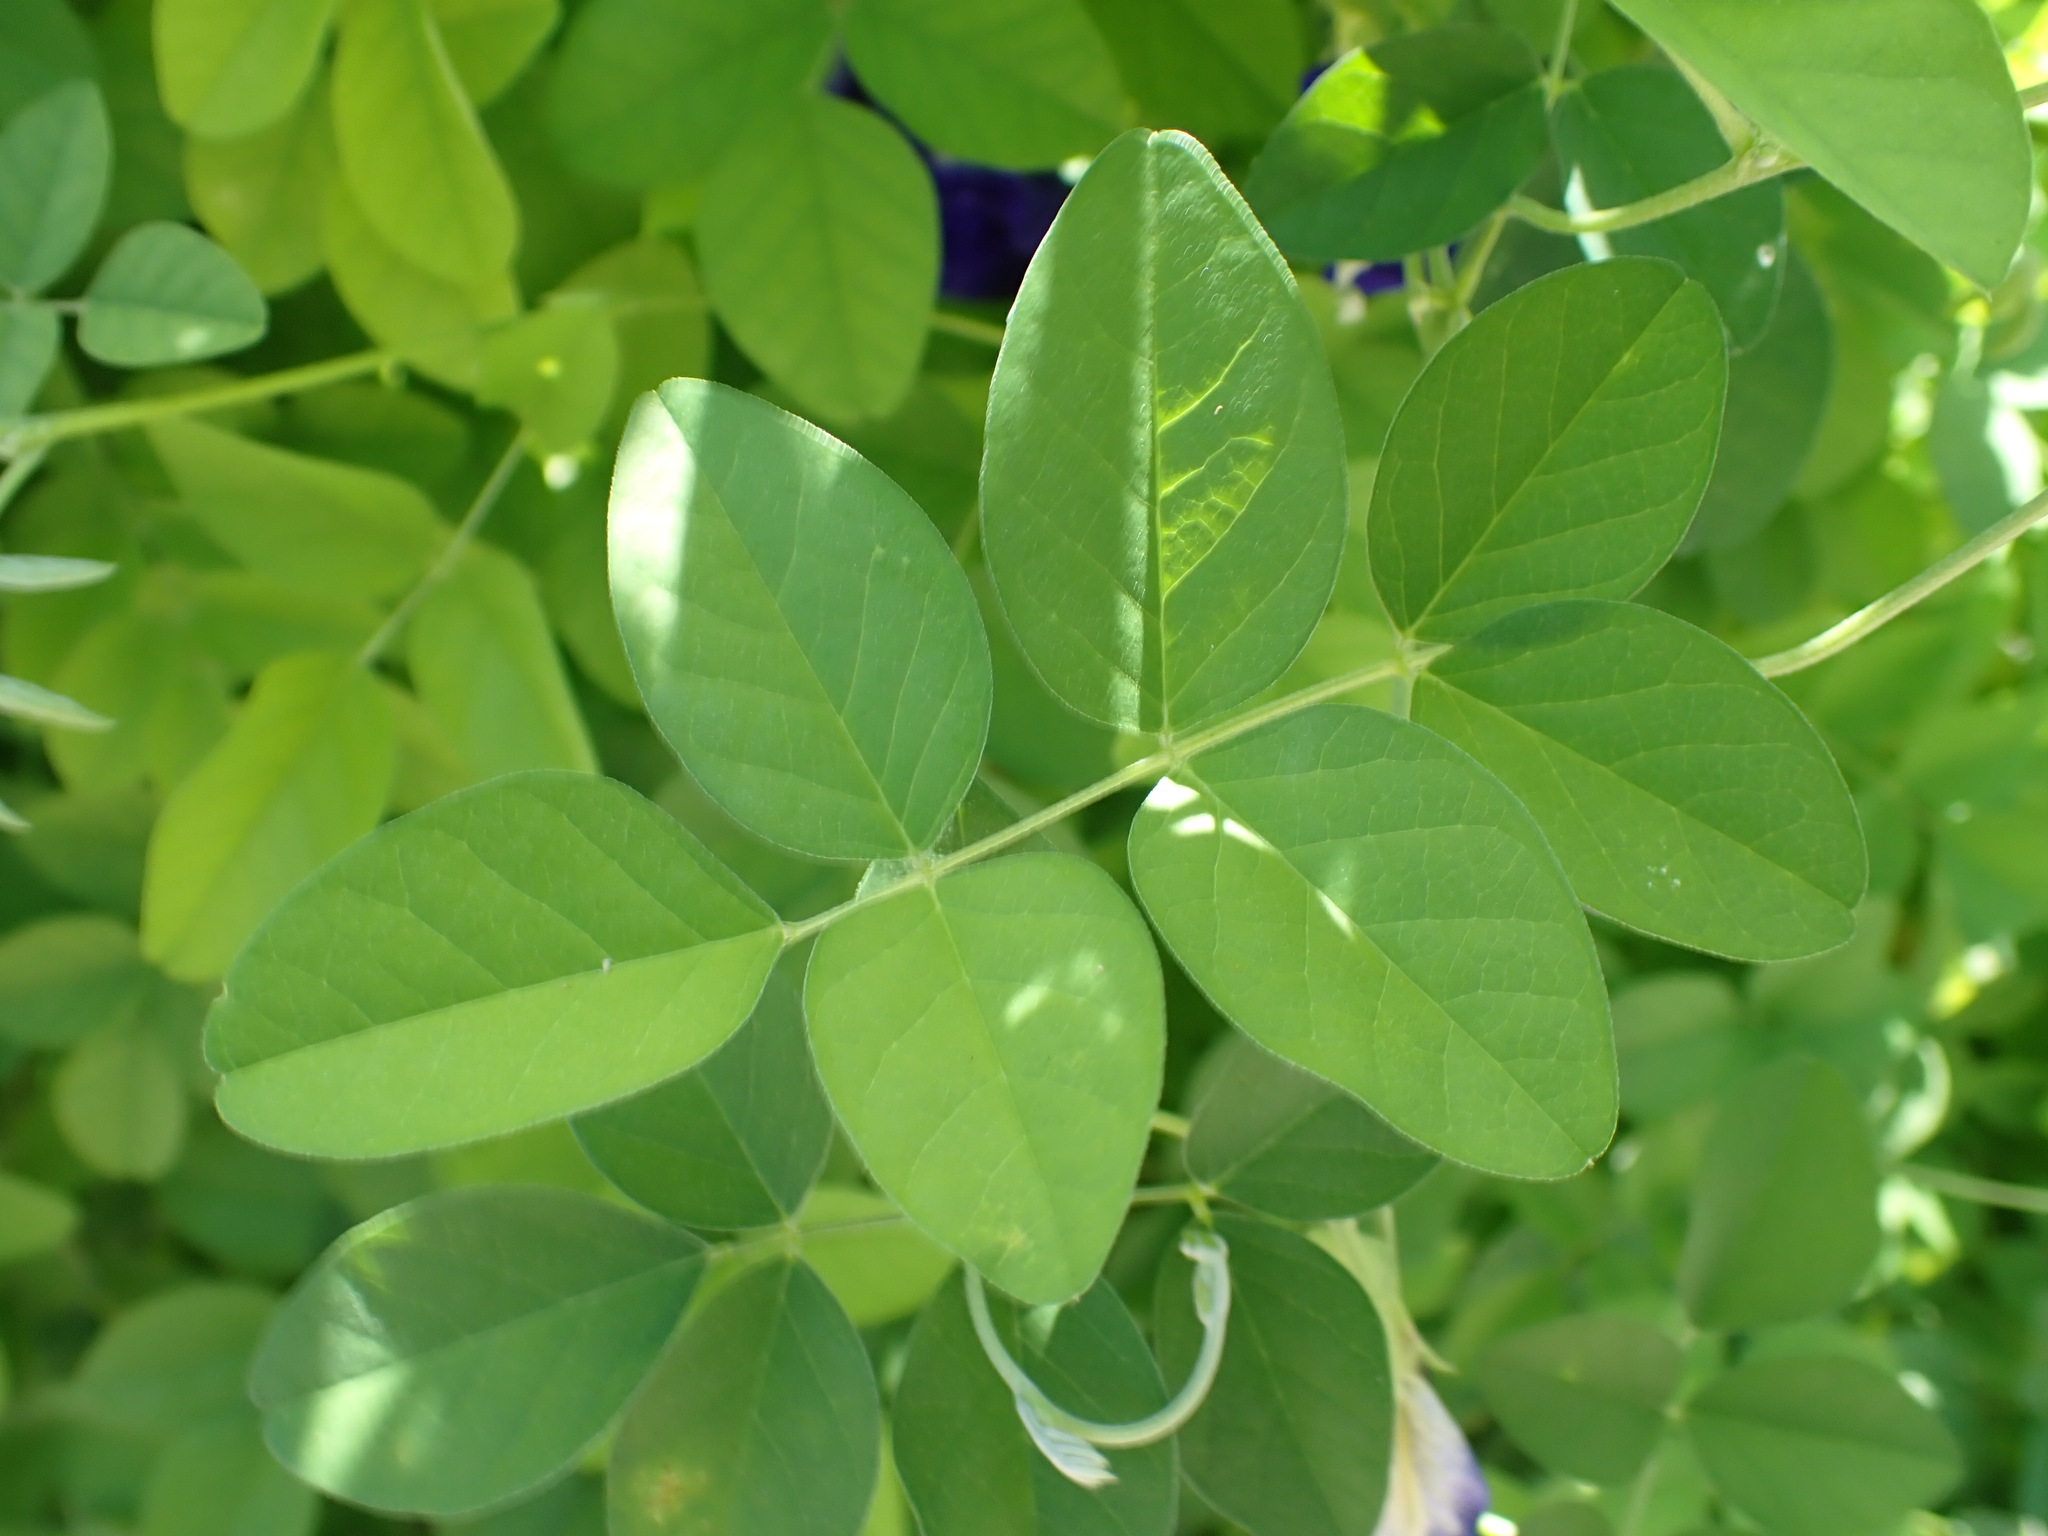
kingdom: Plantae
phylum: Tracheophyta
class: Magnoliopsida
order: Fabales
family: Fabaceae
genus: Clitoria
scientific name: Clitoria ternatea
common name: Asian pigeonwings
